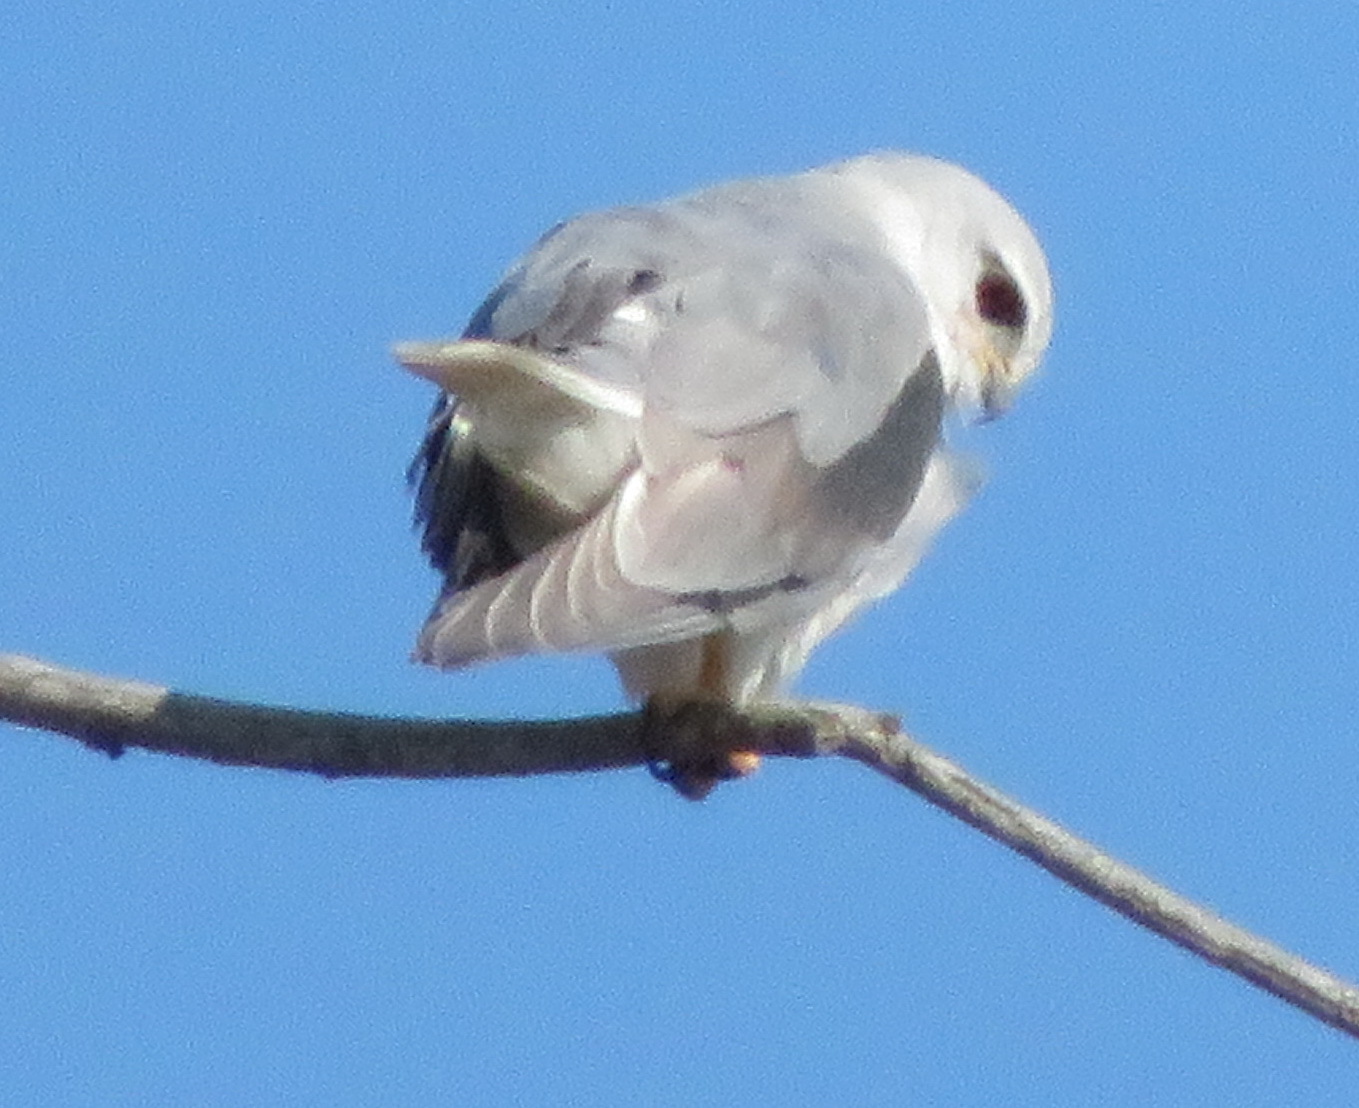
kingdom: Animalia
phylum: Chordata
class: Aves
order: Accipitriformes
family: Accipitridae
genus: Elanus
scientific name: Elanus caeruleus
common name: Black-winged kite
